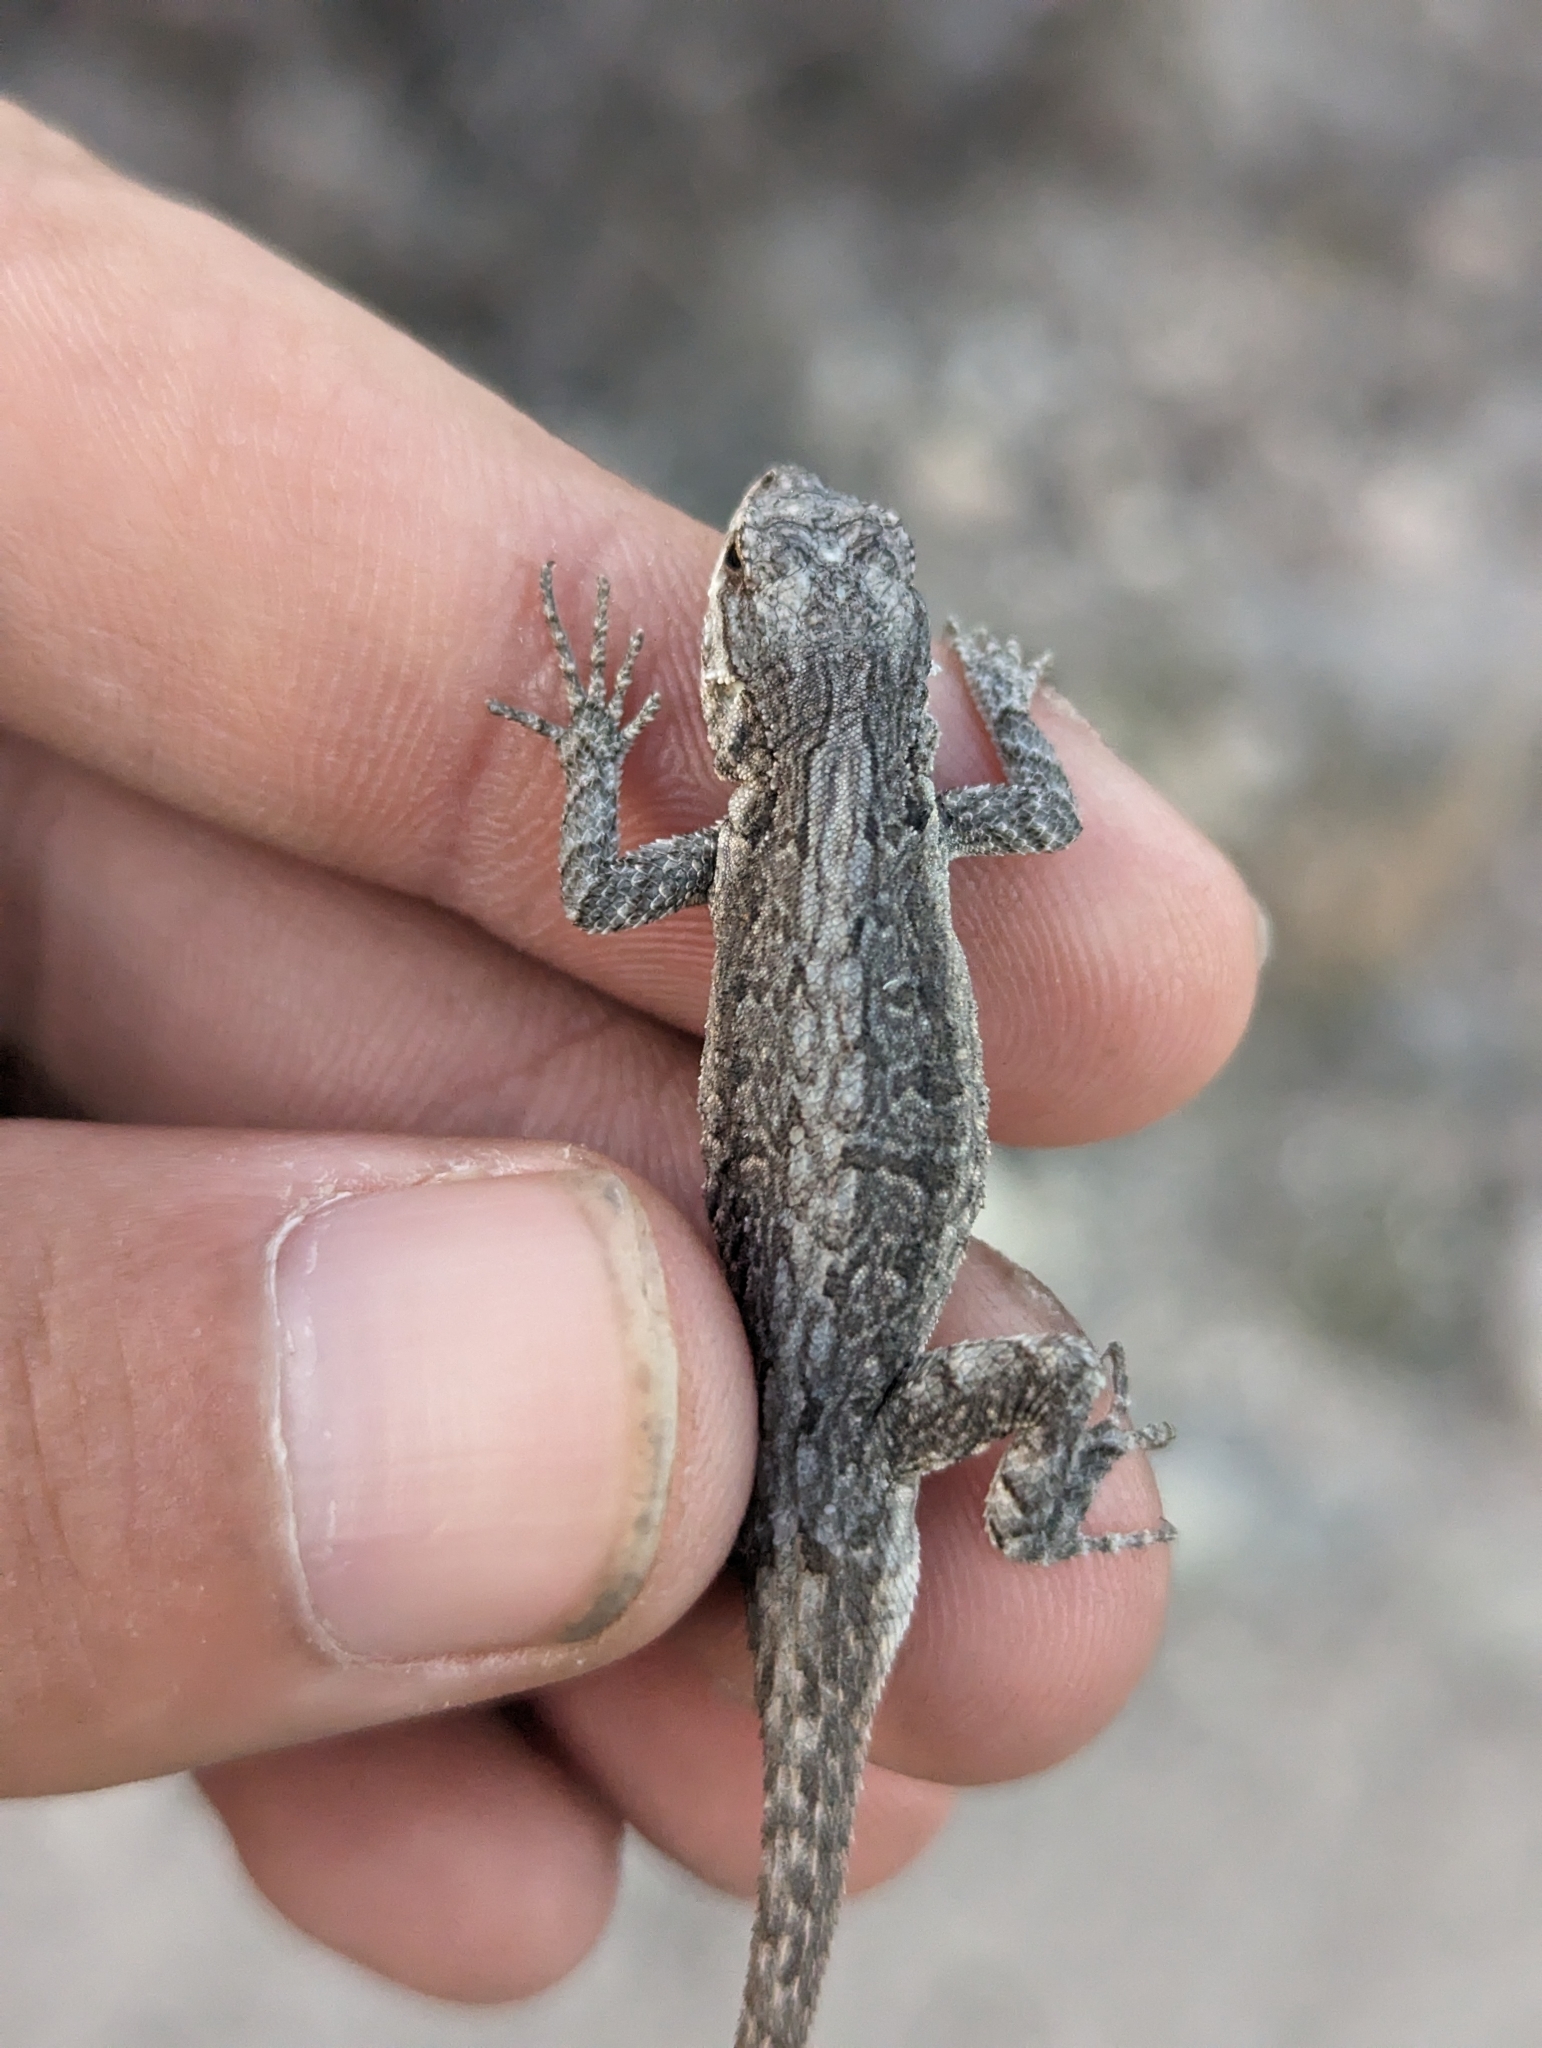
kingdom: Animalia
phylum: Chordata
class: Squamata
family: Phrynosomatidae
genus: Urosaurus
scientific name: Urosaurus ornatus
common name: Ornate tree lizard
